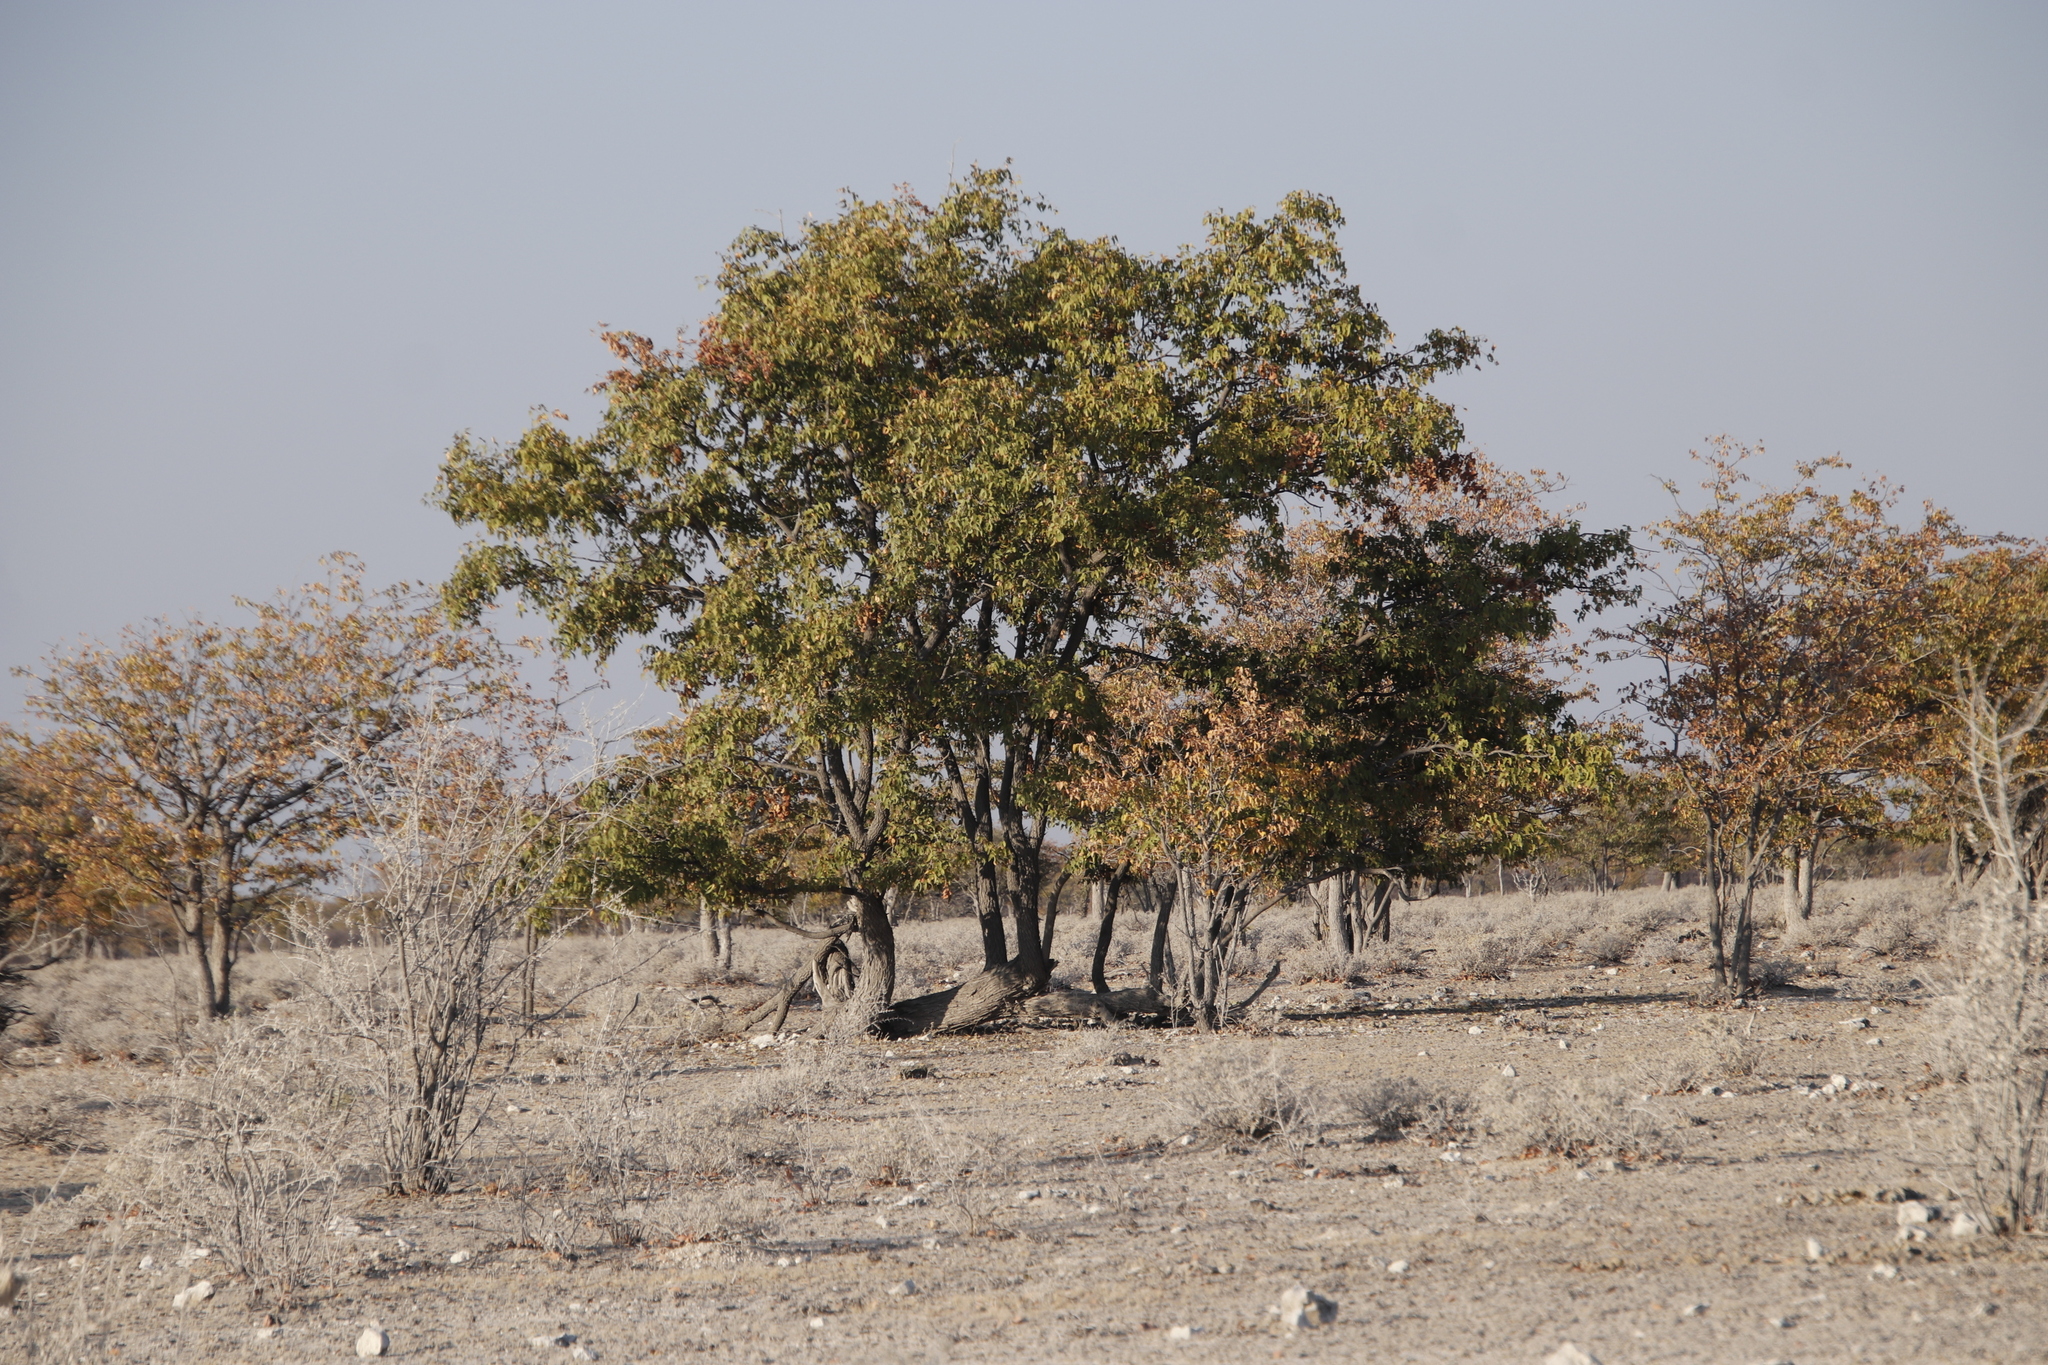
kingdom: Plantae
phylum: Tracheophyta
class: Magnoliopsida
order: Lamiales
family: Bignoniaceae
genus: Catophractes
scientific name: Catophractes alexandri
